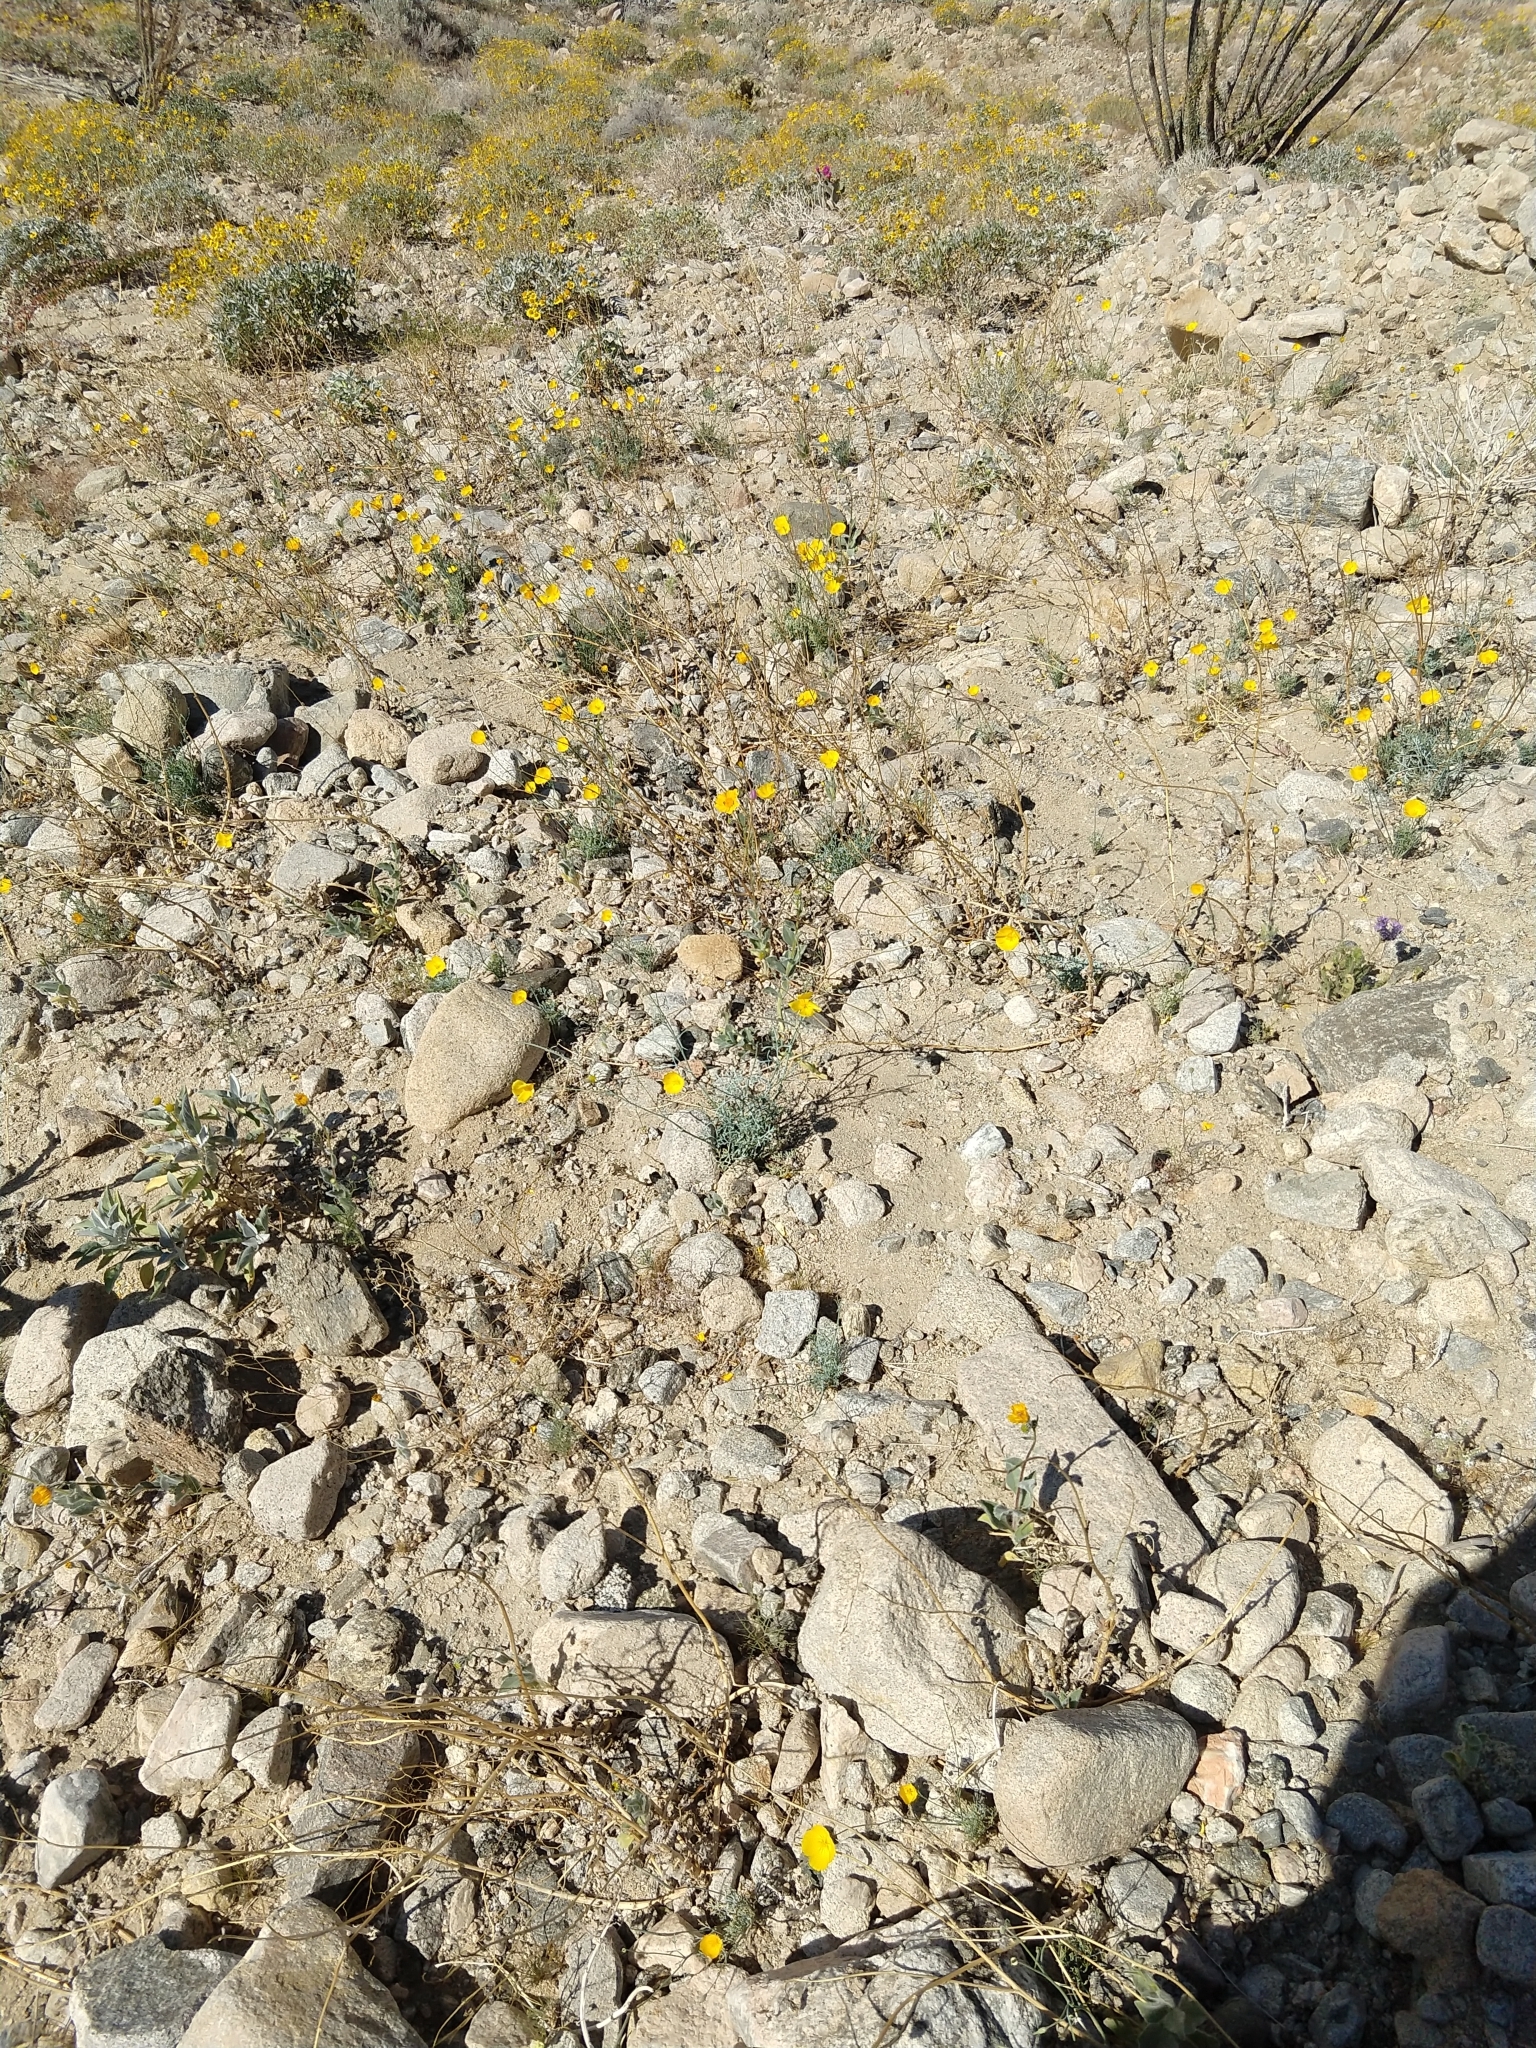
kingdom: Plantae
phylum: Tracheophyta
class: Magnoliopsida
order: Ranunculales
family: Papaveraceae
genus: Eschscholzia
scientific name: Eschscholzia minutiflora
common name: Small-flower california-poppy
